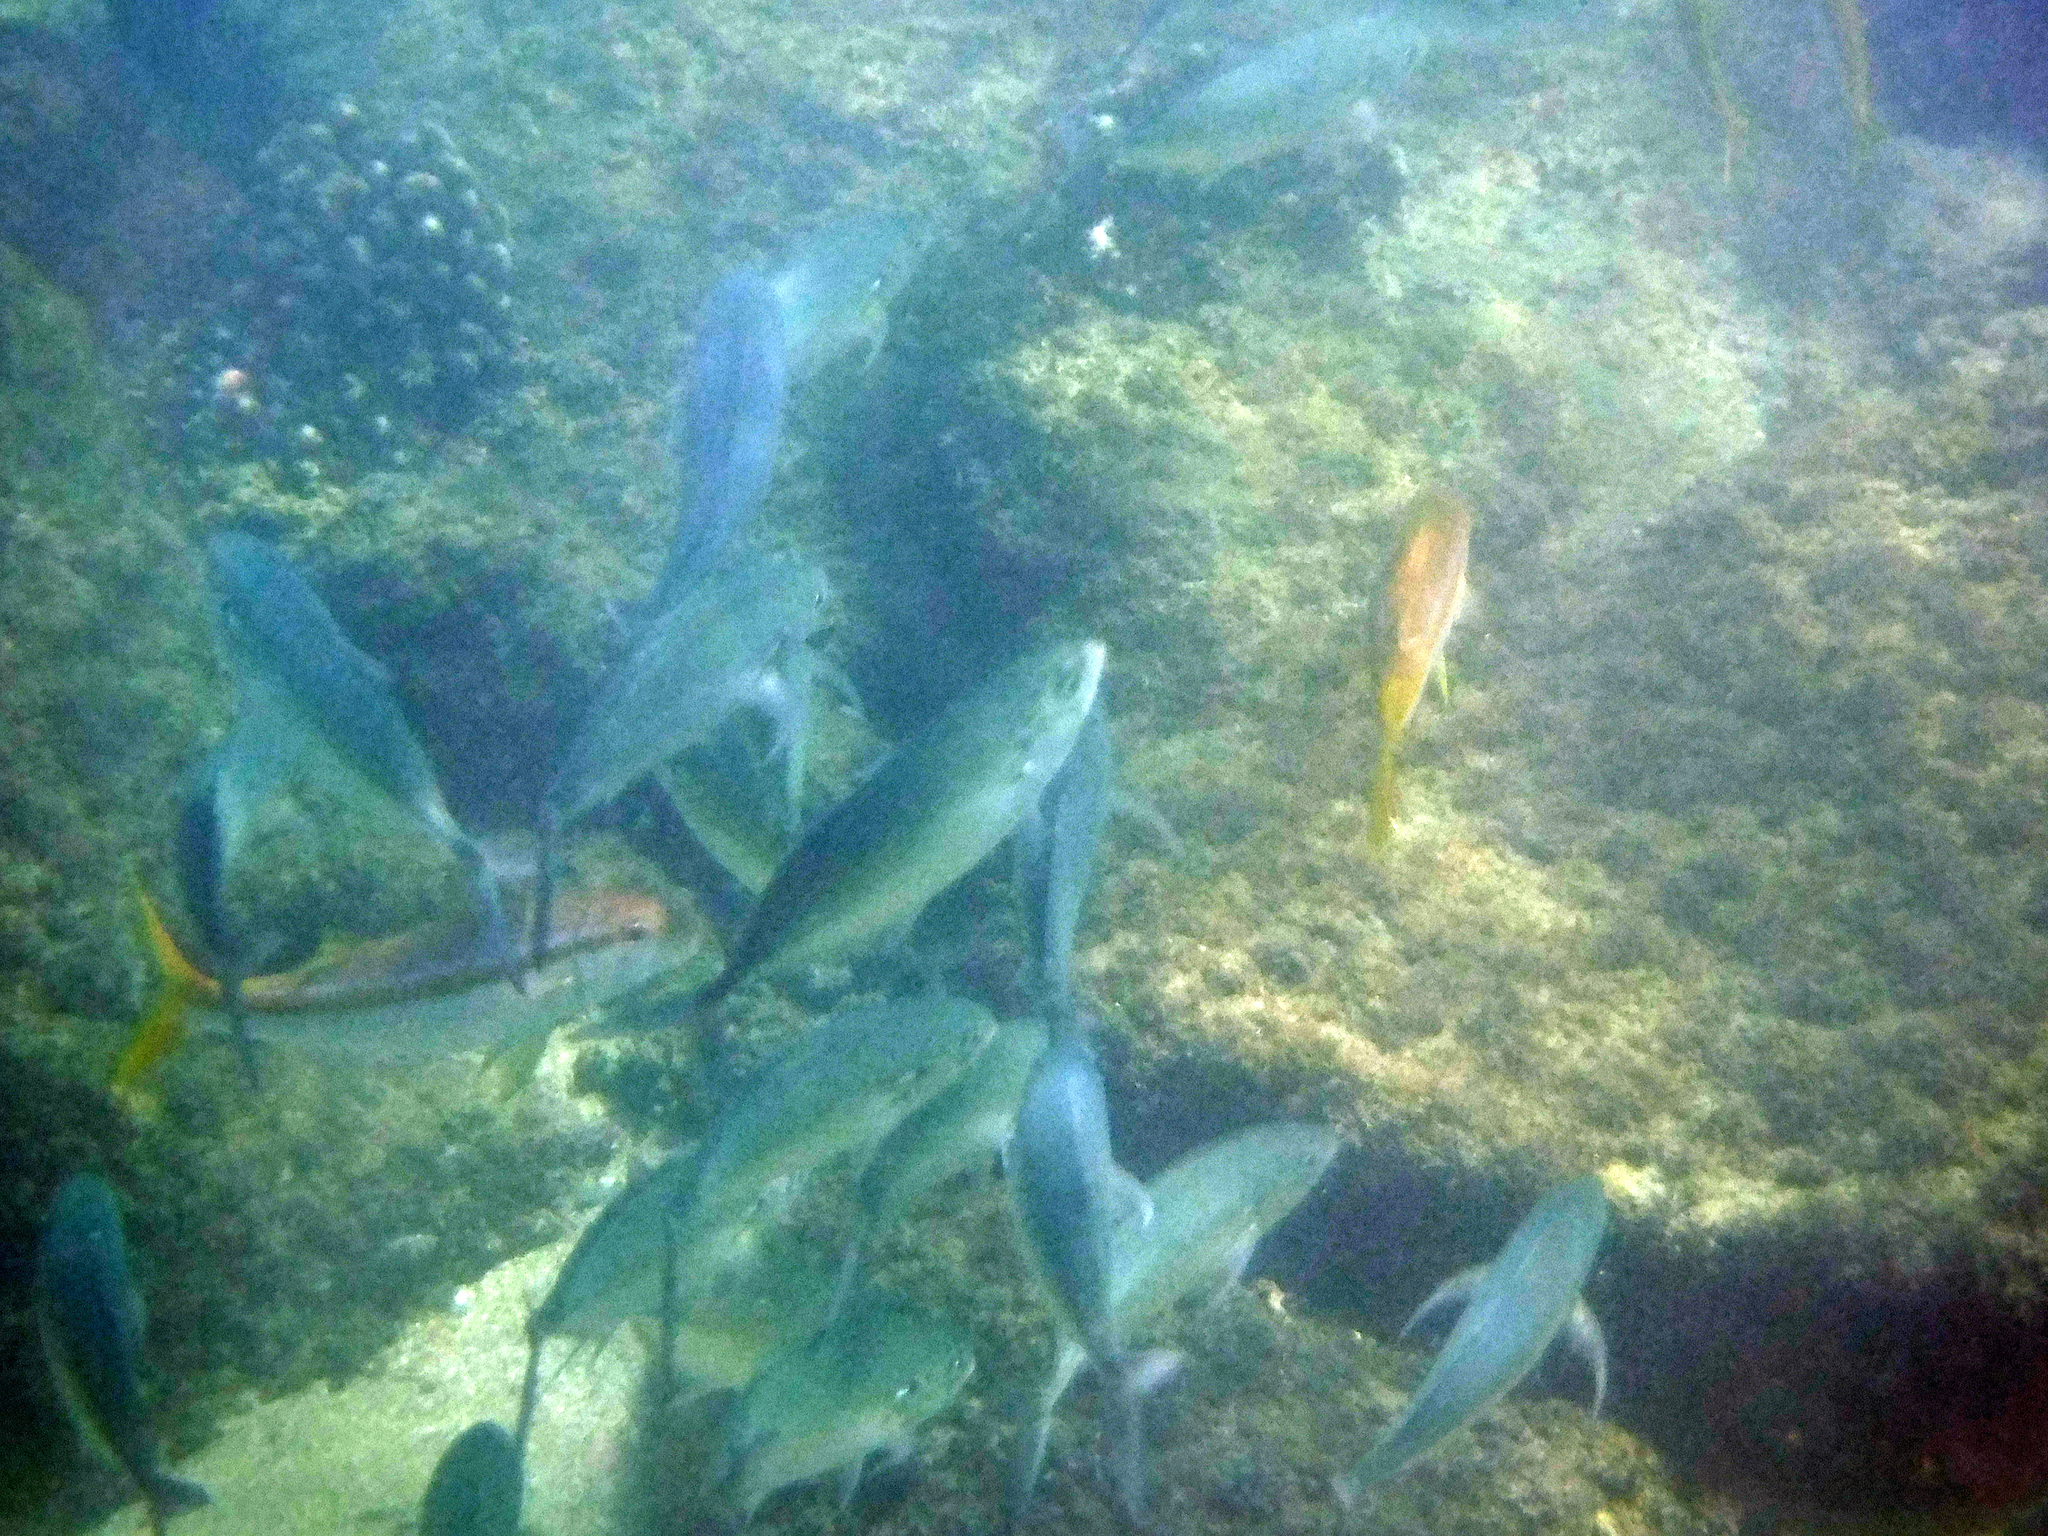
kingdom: Animalia
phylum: Chordata
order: Perciformes
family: Mullidae
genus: Mulloidichthys
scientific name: Mulloidichthys dentatus
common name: Mexican goatfish
